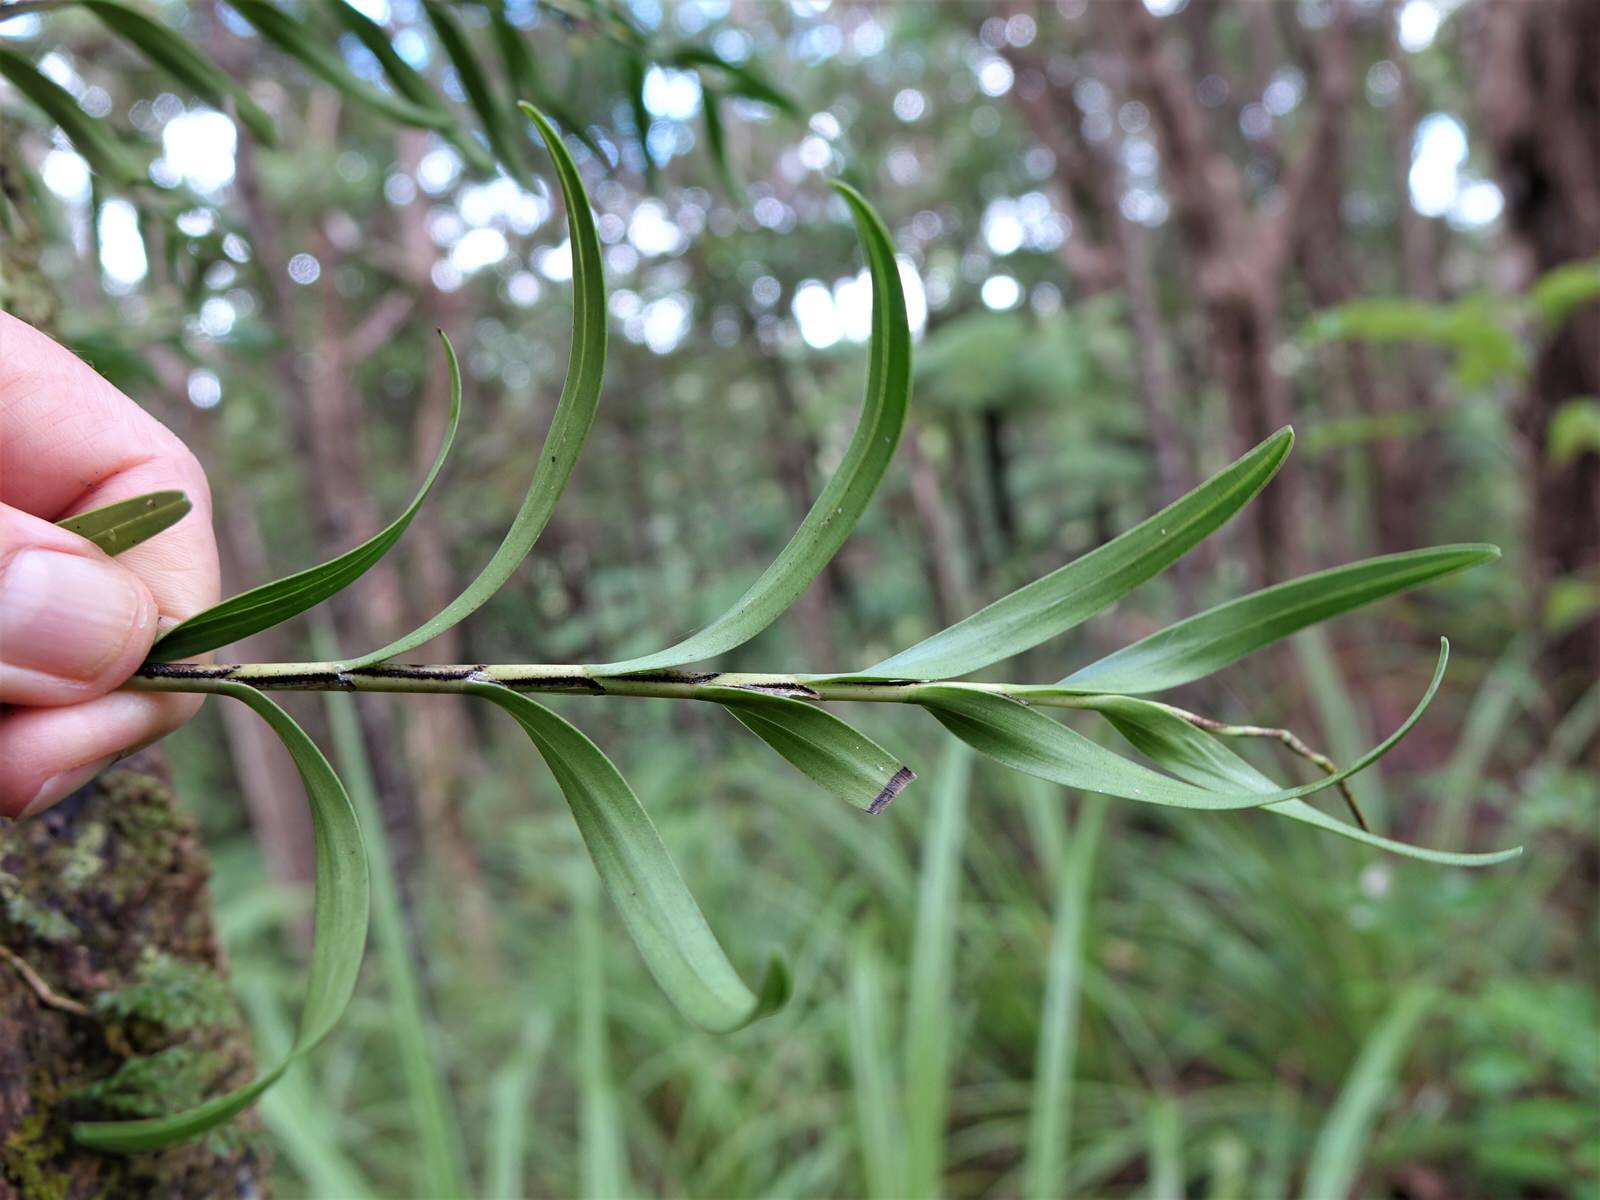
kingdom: Plantae
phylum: Tracheophyta
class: Liliopsida
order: Asparagales
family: Orchidaceae
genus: Earina
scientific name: Earina autumnalis
